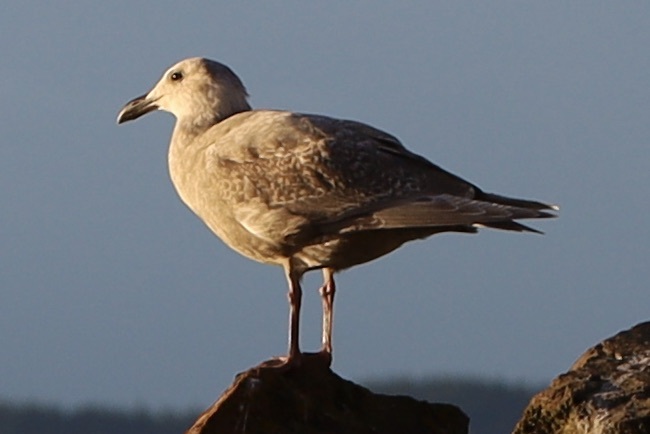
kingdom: Animalia
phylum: Chordata
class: Aves
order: Charadriiformes
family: Laridae
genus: Larus
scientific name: Larus
